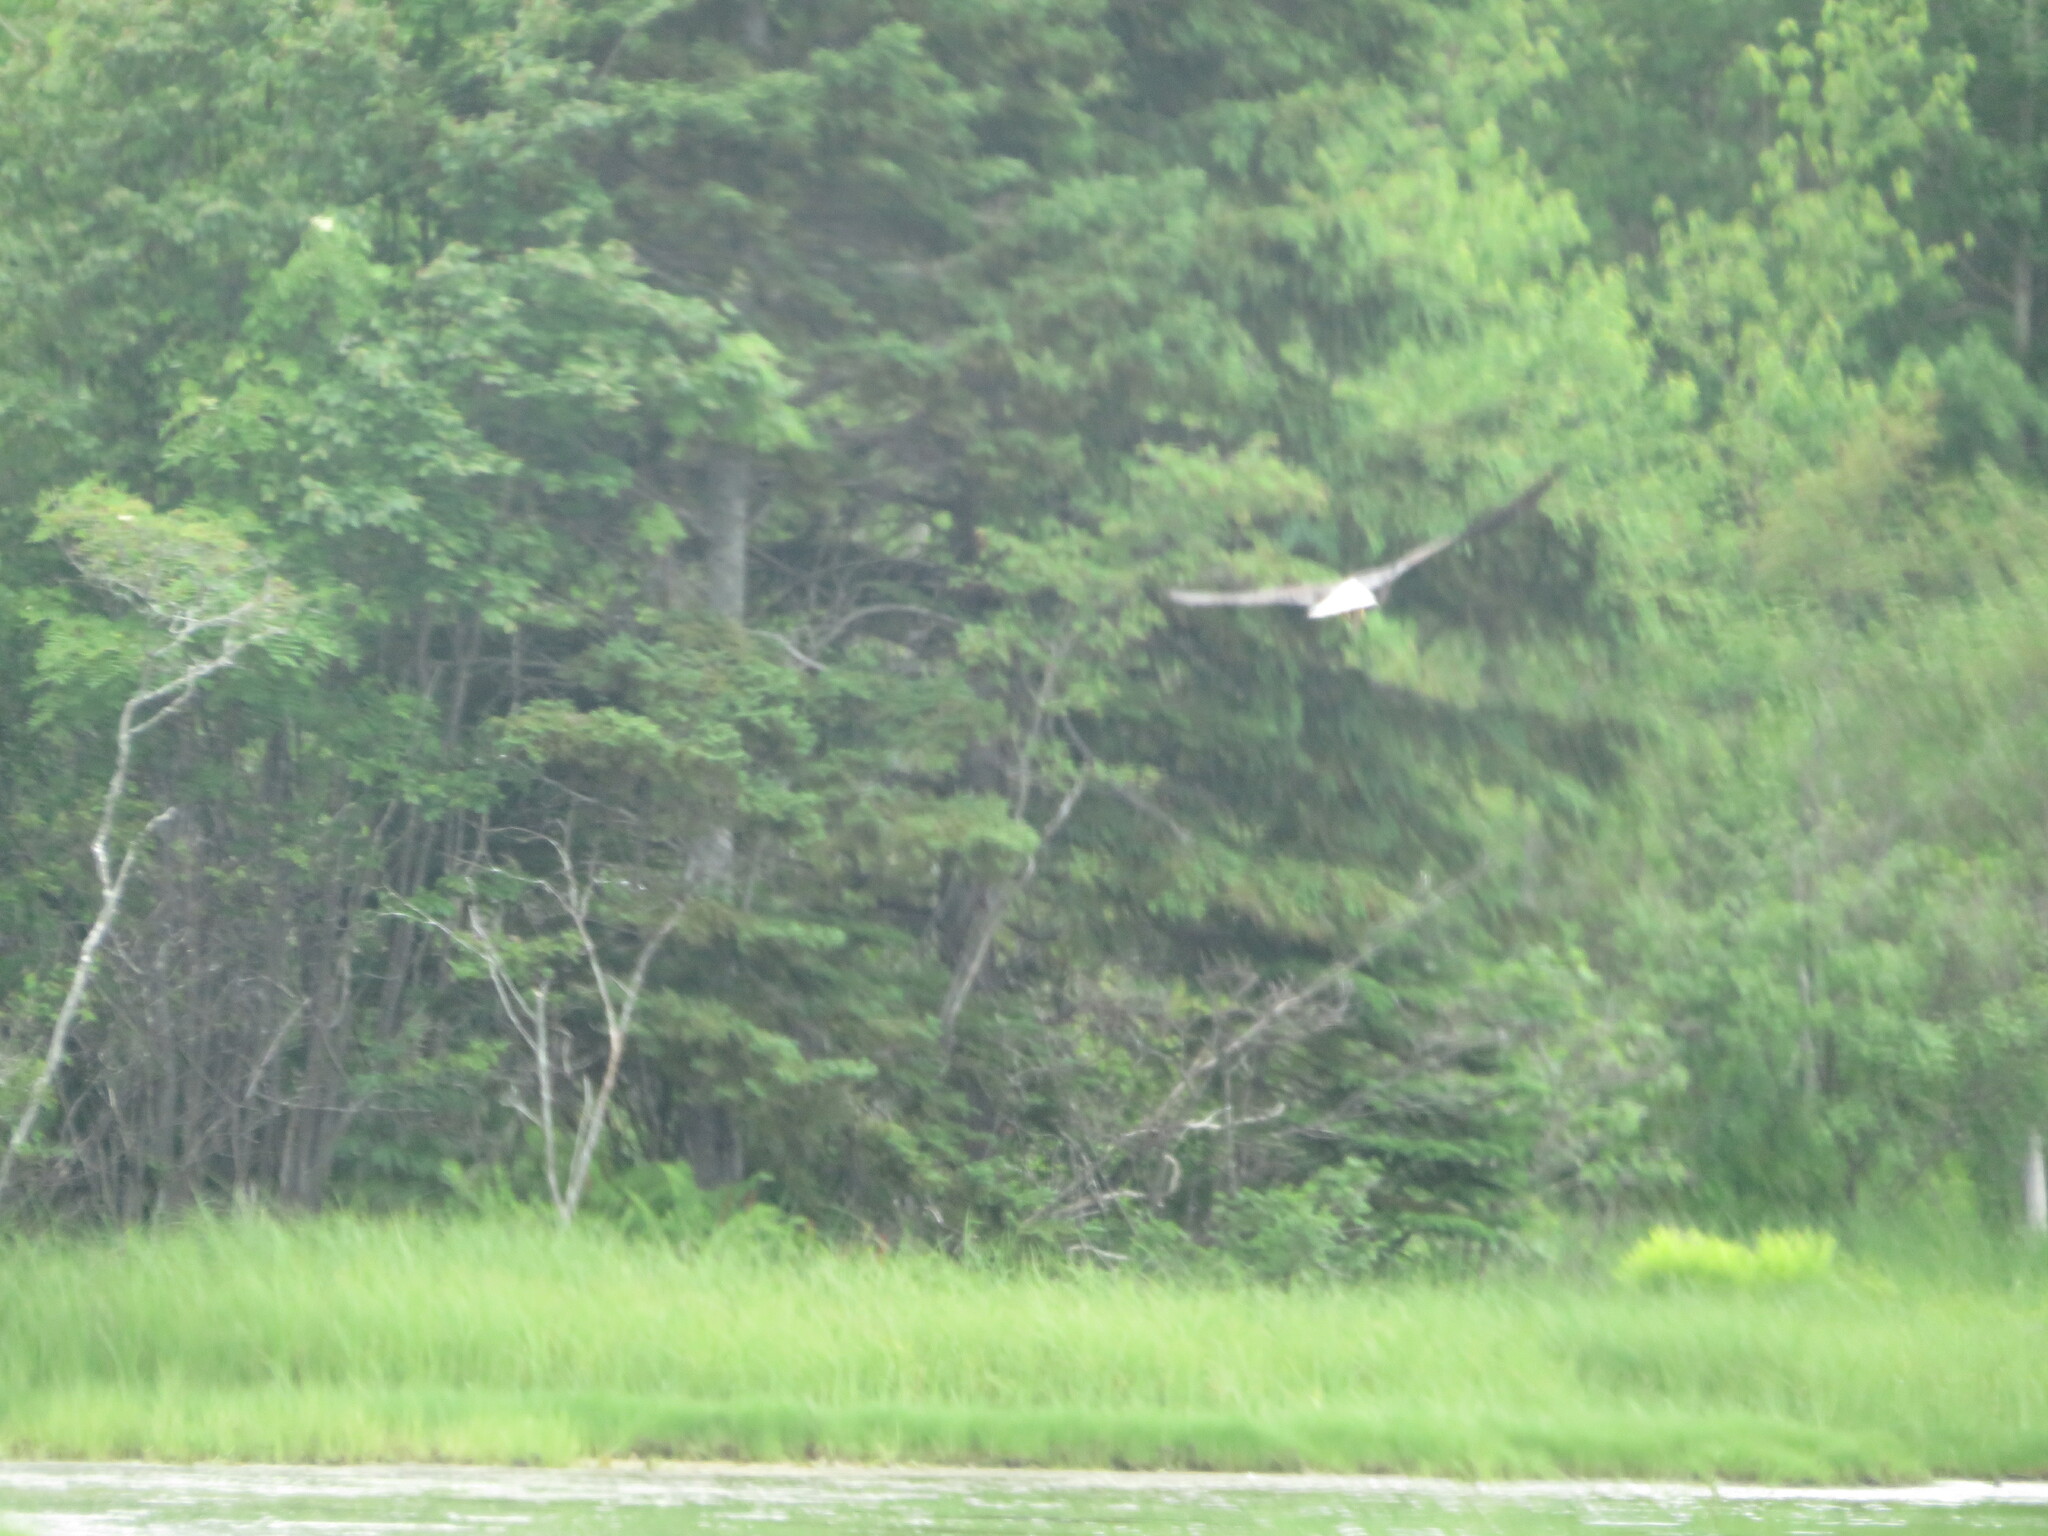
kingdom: Animalia
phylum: Chordata
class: Aves
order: Accipitriformes
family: Accipitridae
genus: Haliaeetus
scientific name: Haliaeetus leucocephalus
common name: Bald eagle
